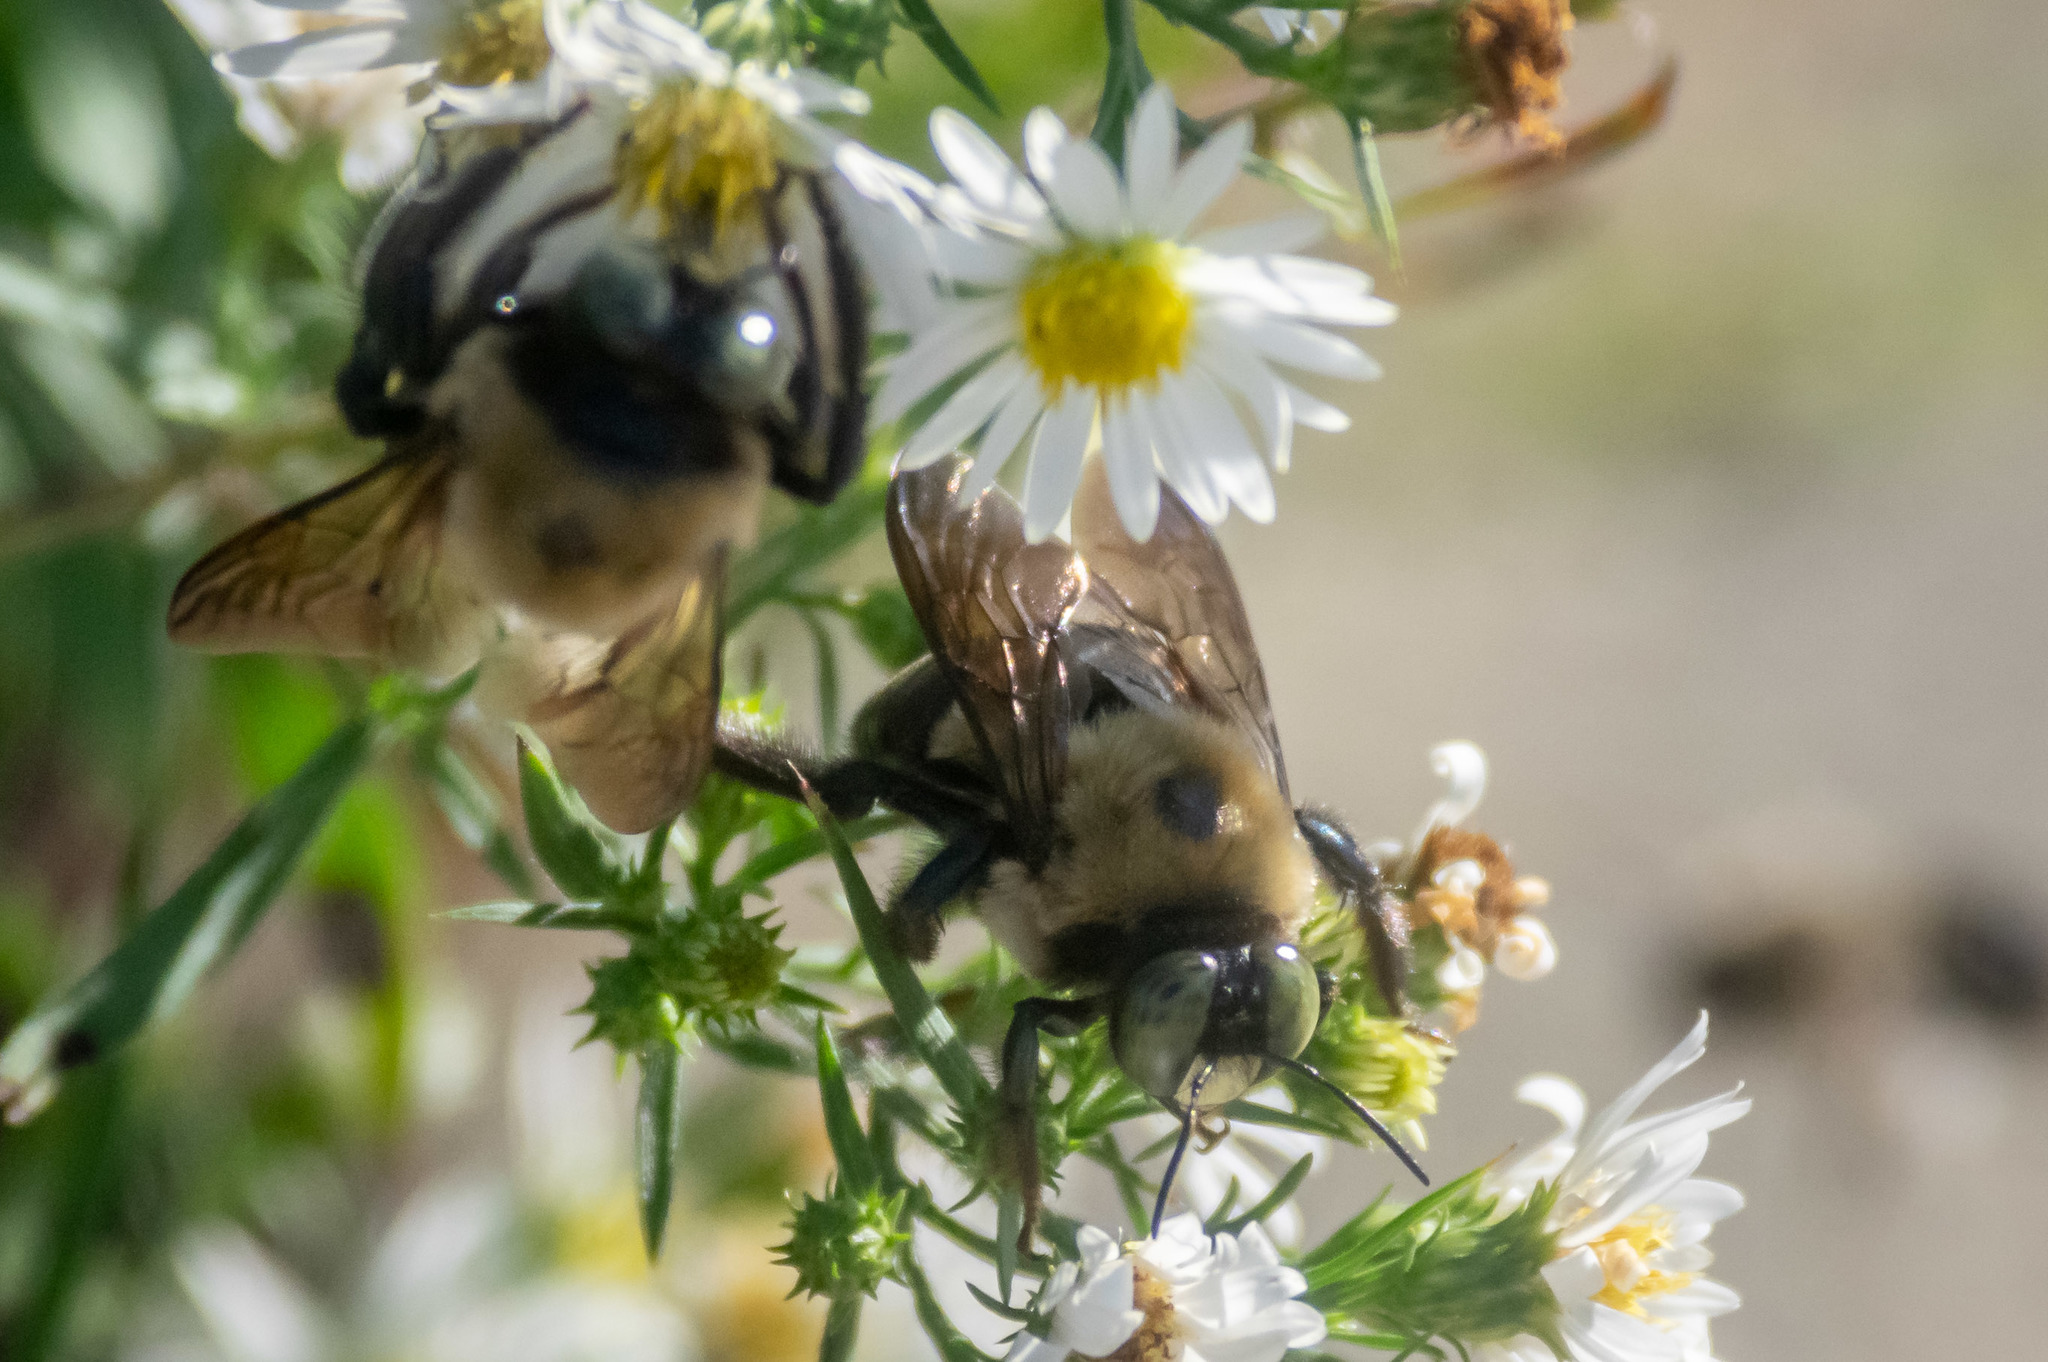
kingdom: Animalia
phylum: Arthropoda
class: Insecta
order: Hymenoptera
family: Apidae
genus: Xylocopa
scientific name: Xylocopa virginica
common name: Carpenter bee
